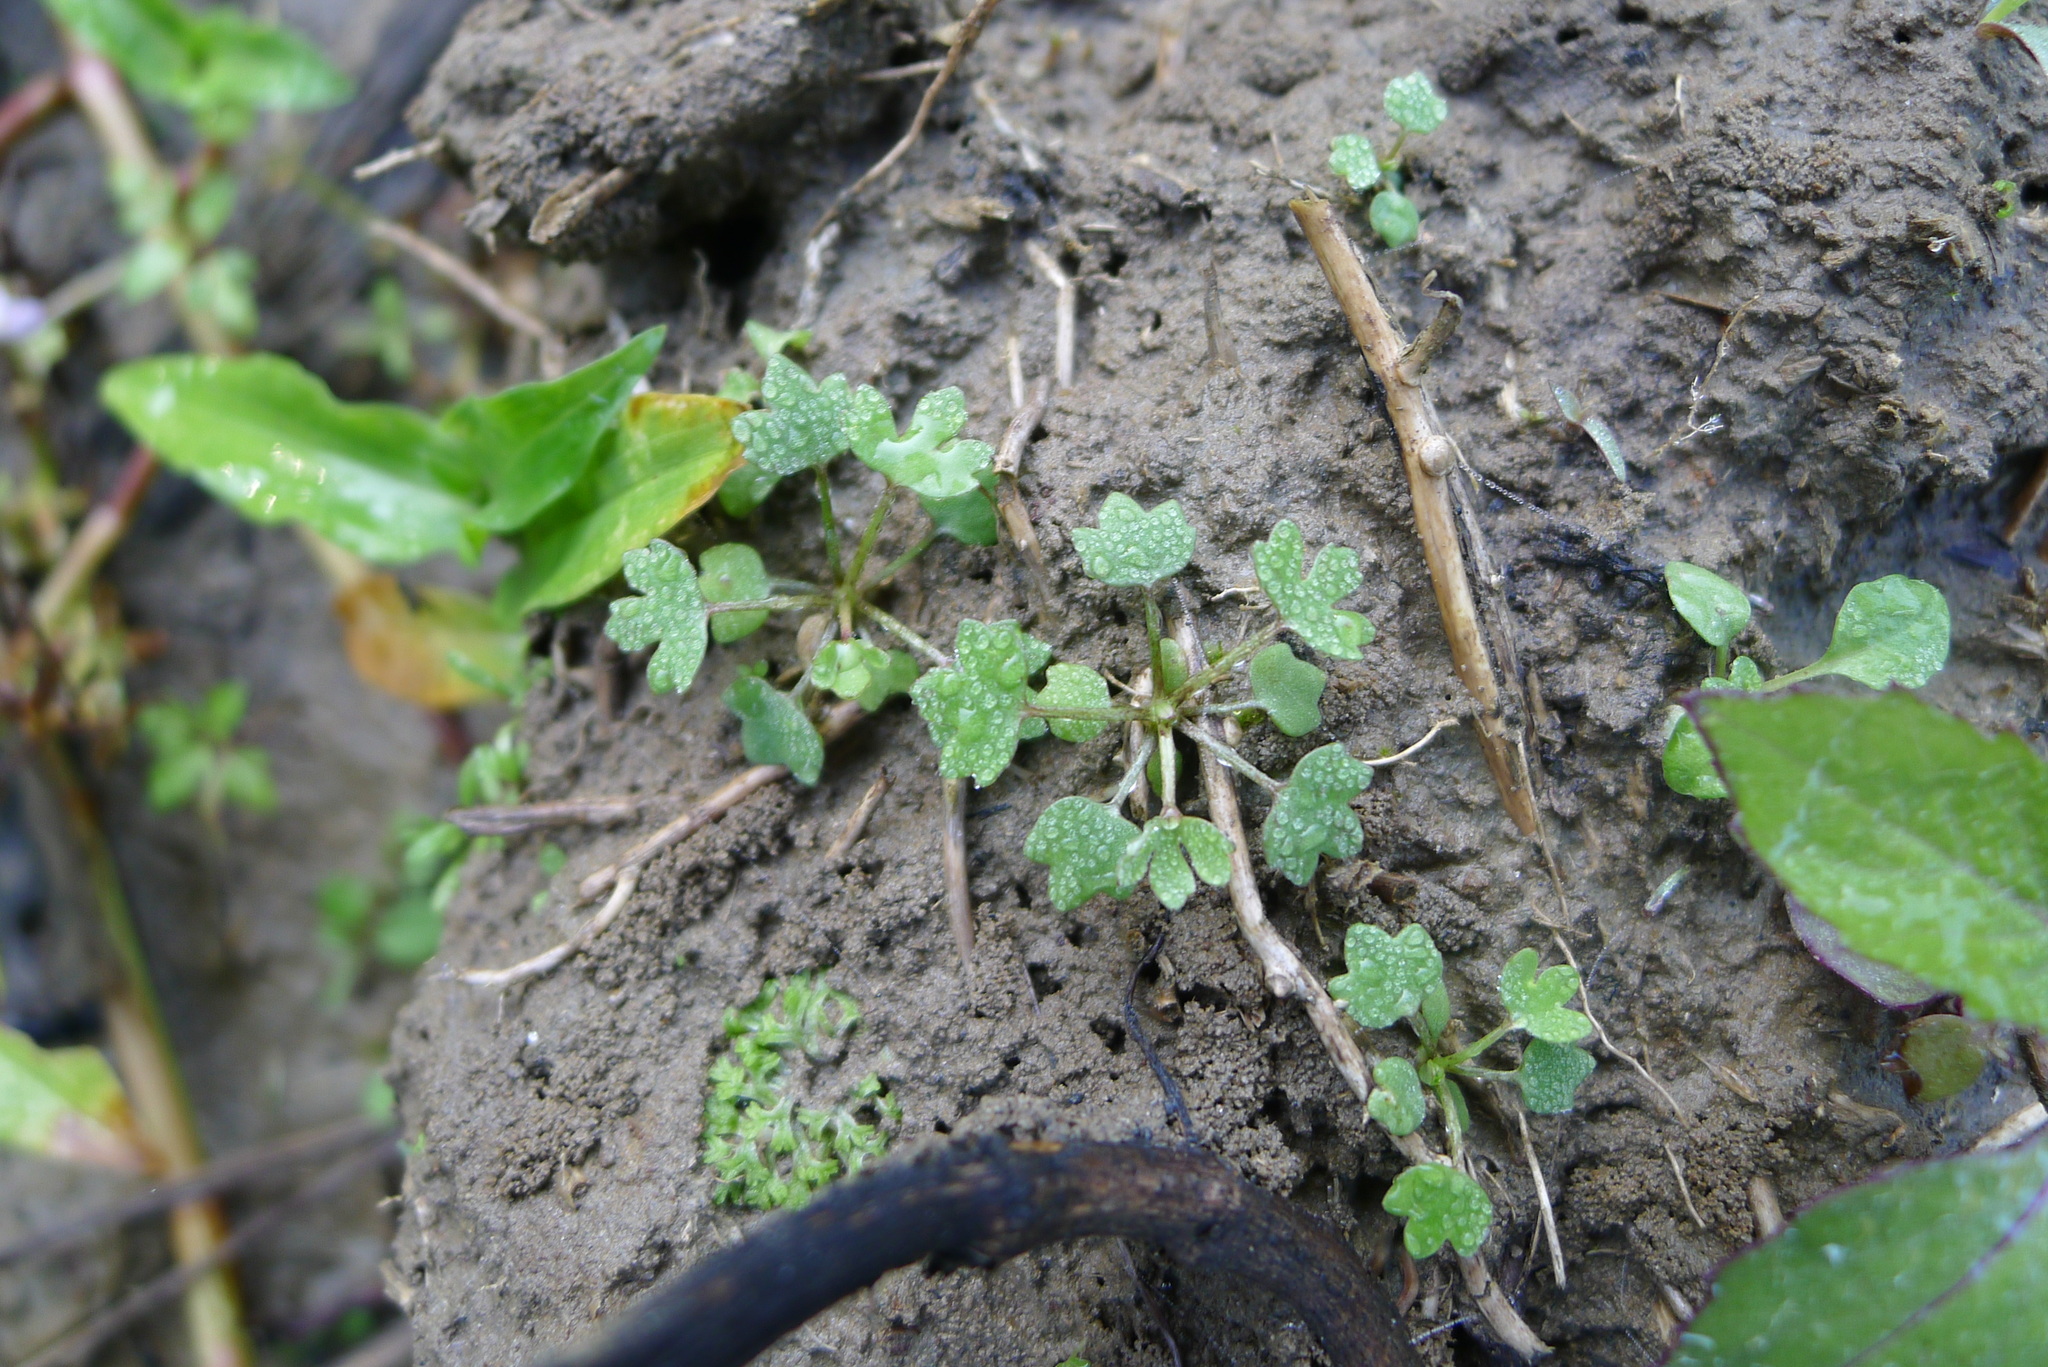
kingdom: Plantae
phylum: Tracheophyta
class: Magnoliopsida
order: Ranunculales
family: Ranunculaceae
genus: Ranunculus
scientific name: Ranunculus sceleratus
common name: Celery-leaved buttercup
